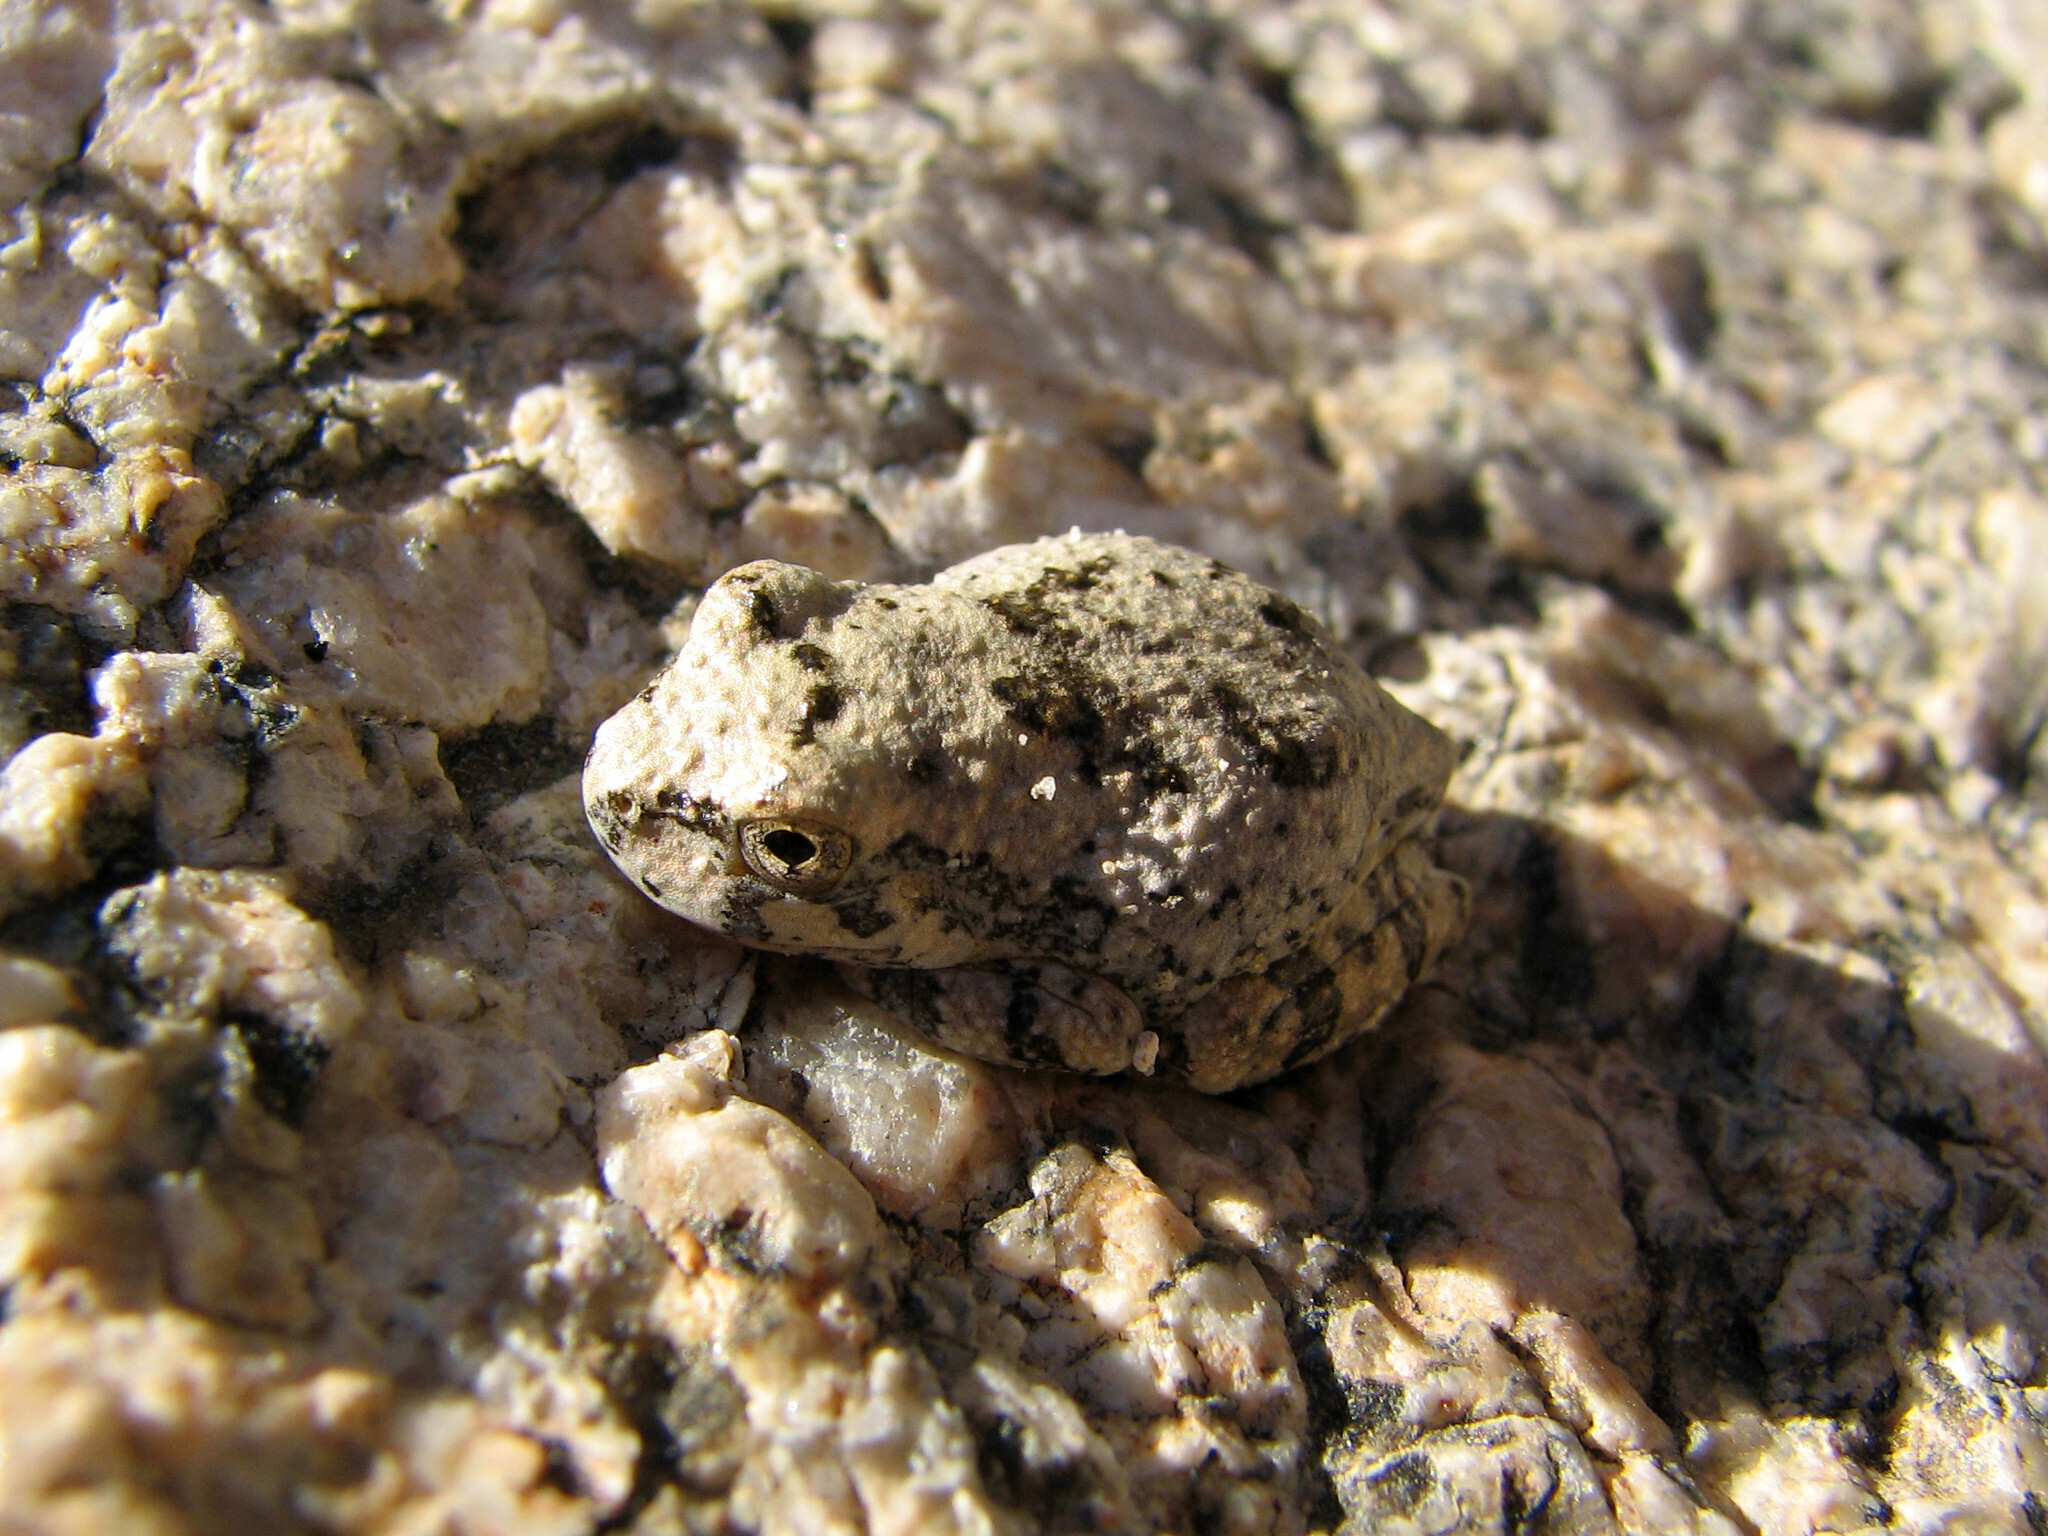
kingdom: Animalia
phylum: Chordata
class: Amphibia
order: Anura
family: Hylidae
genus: Dryophytes
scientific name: Dryophytes arenicolor
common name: Canyon treefrog
